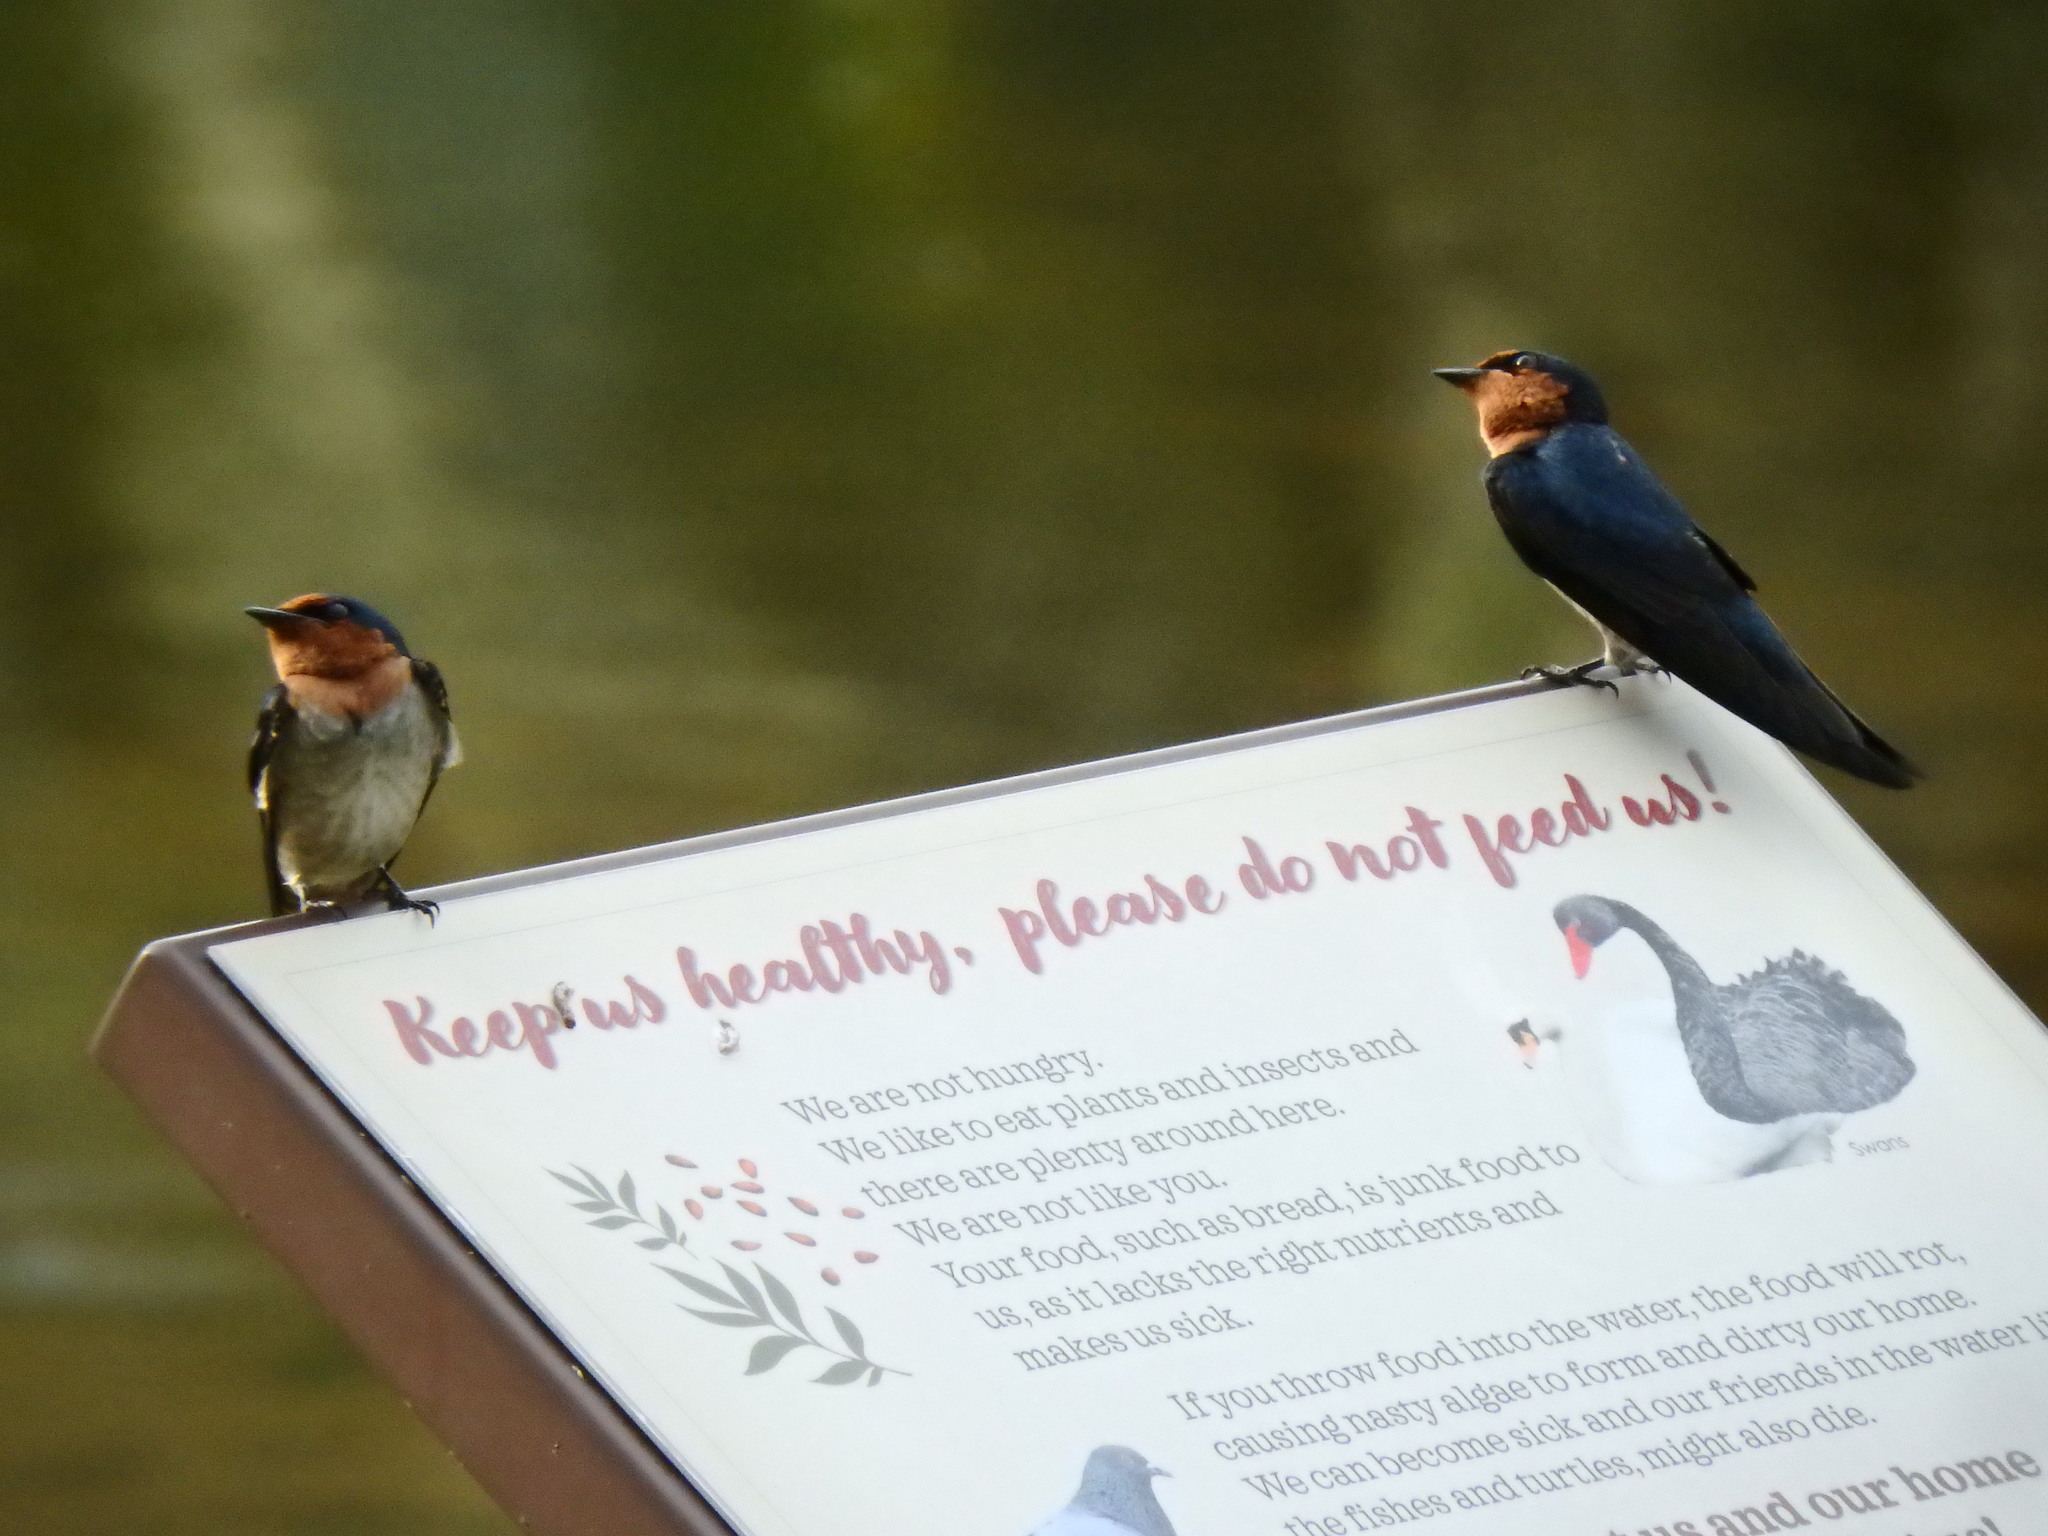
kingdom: Animalia
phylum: Chordata
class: Aves
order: Passeriformes
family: Hirundinidae
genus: Hirundo
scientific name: Hirundo tahitica
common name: Pacific swallow
